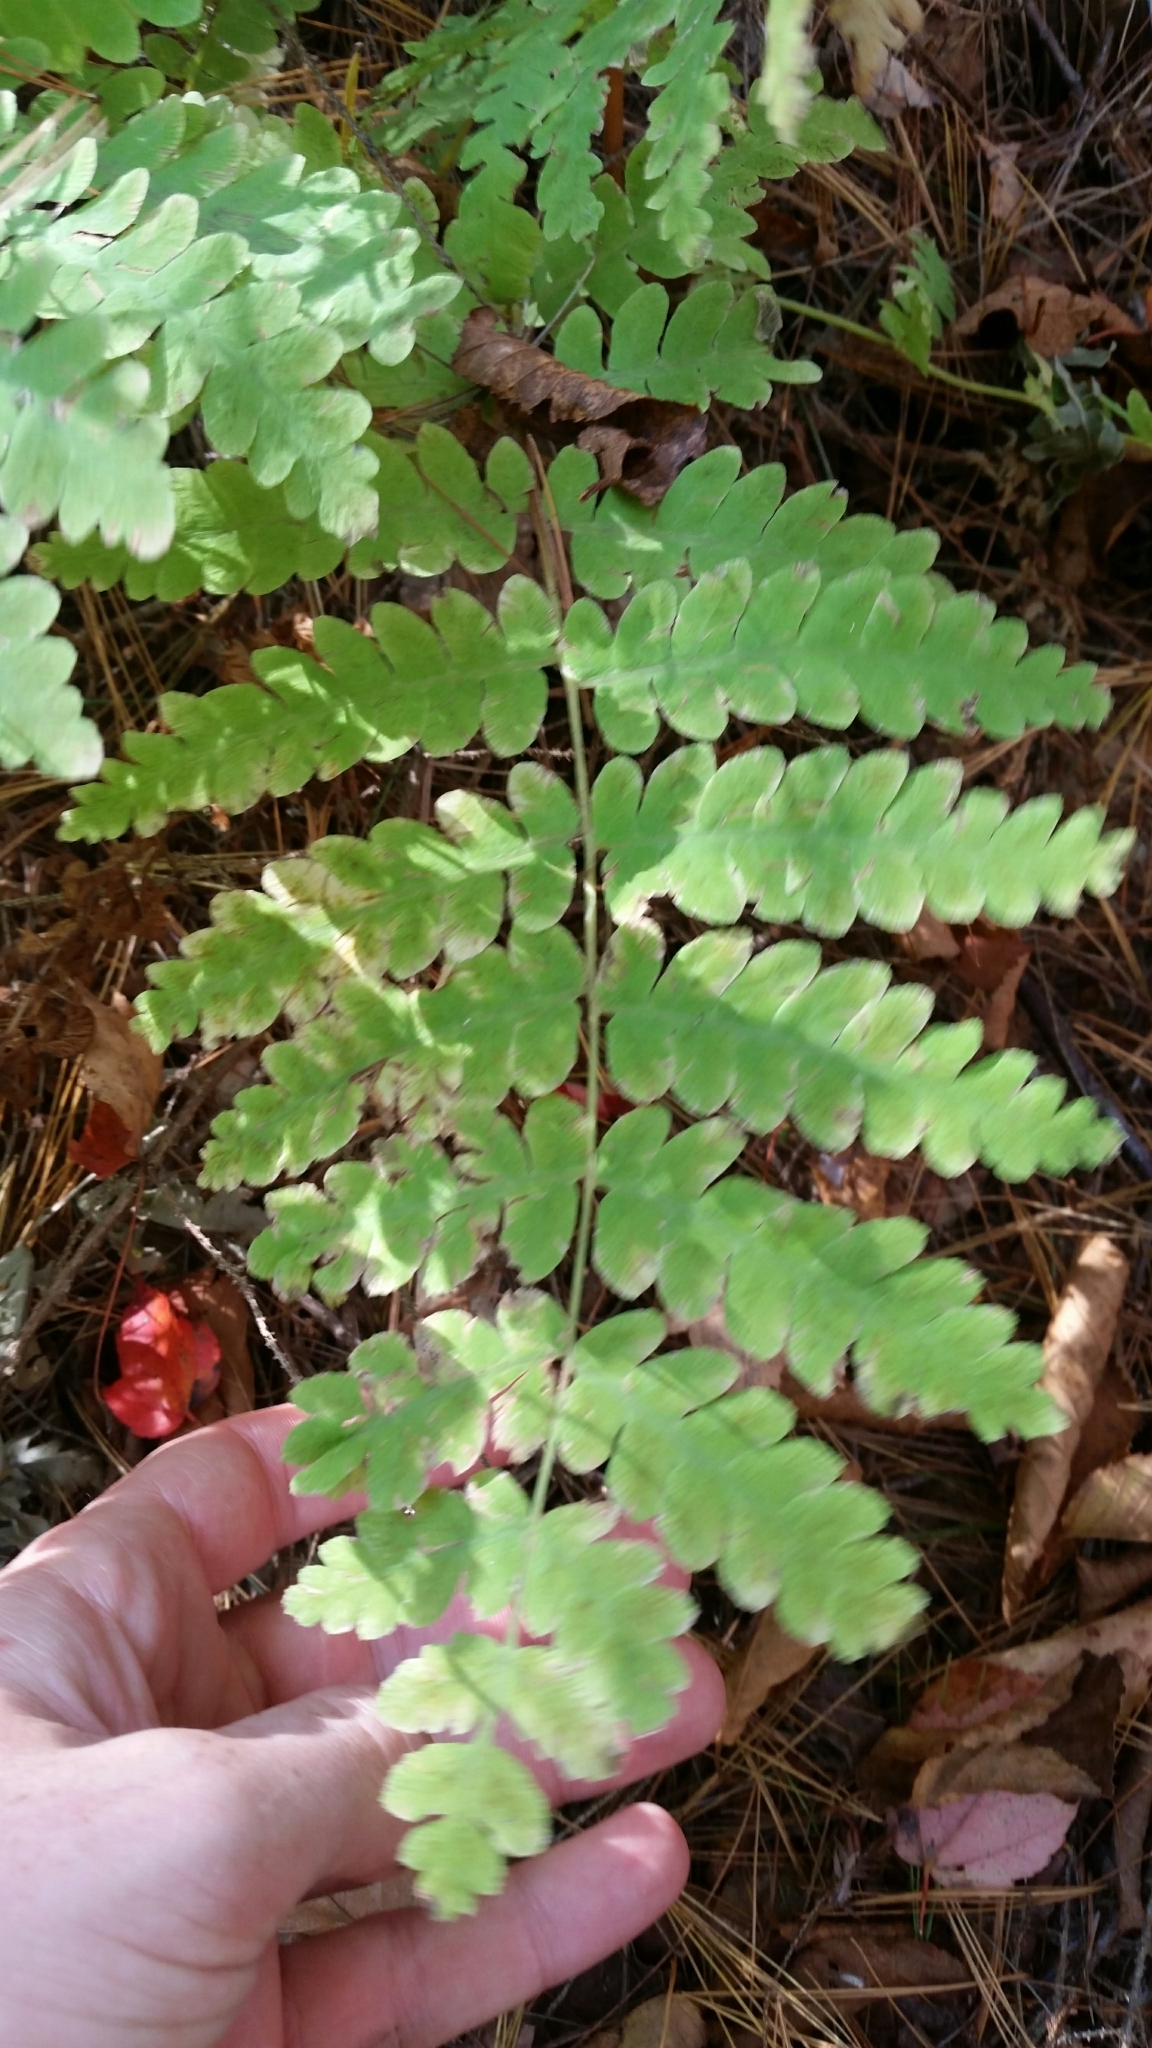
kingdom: Plantae
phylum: Tracheophyta
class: Polypodiopsida
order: Osmundales
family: Osmundaceae
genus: Claytosmunda
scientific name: Claytosmunda claytoniana
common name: Clayton's fern
